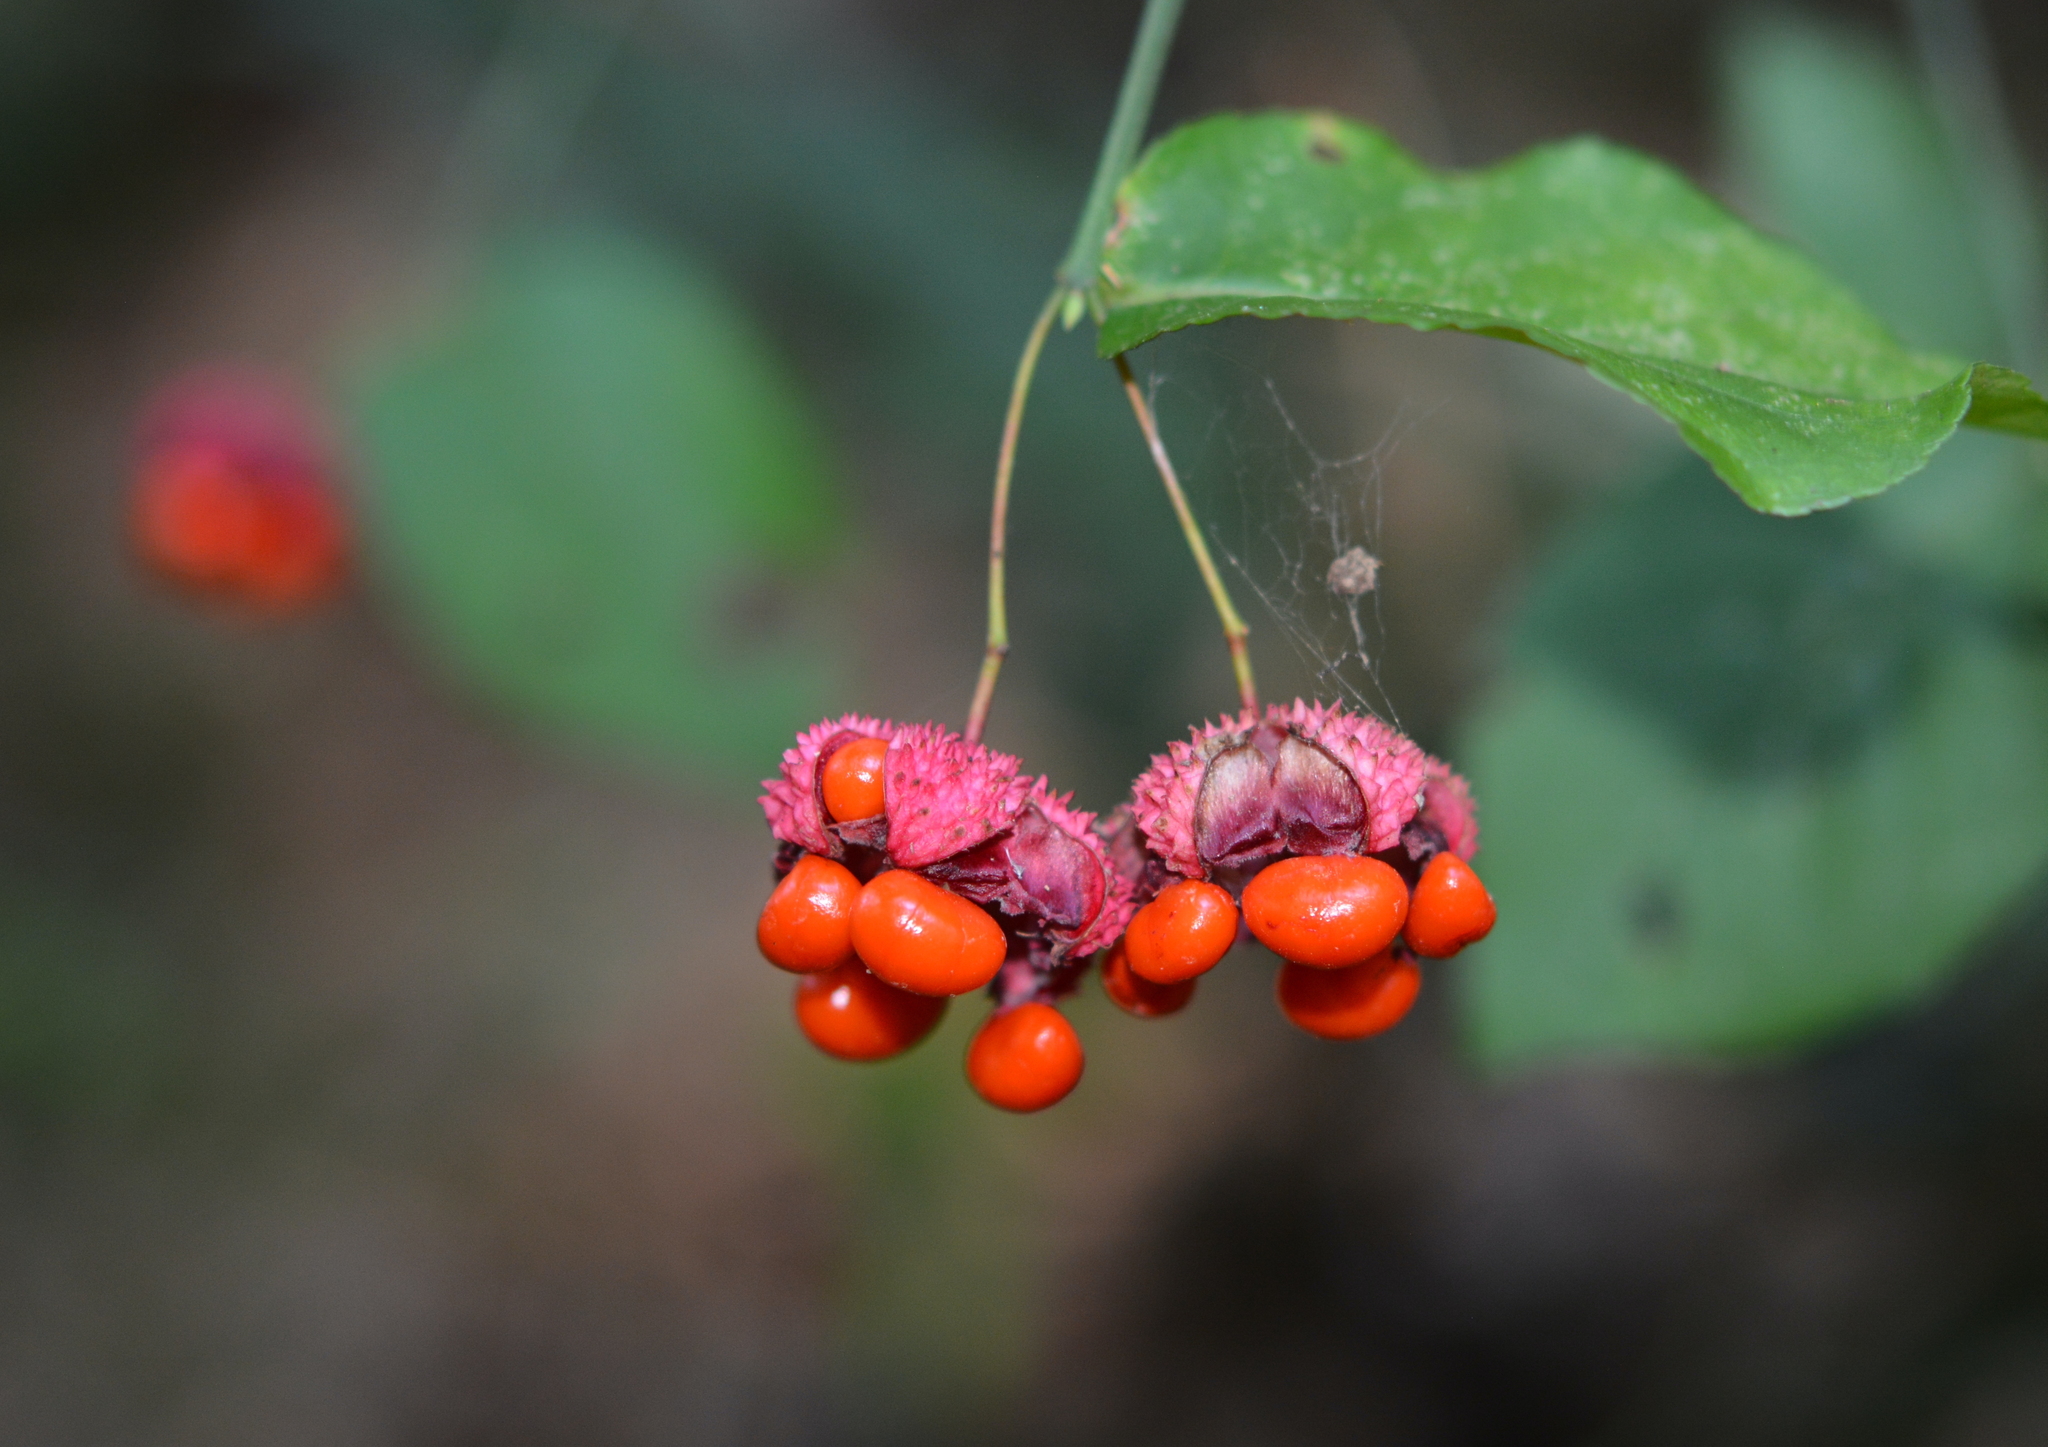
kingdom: Plantae
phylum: Tracheophyta
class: Magnoliopsida
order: Celastrales
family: Celastraceae
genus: Euonymus
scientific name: Euonymus americanus
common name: Bursting-heart
